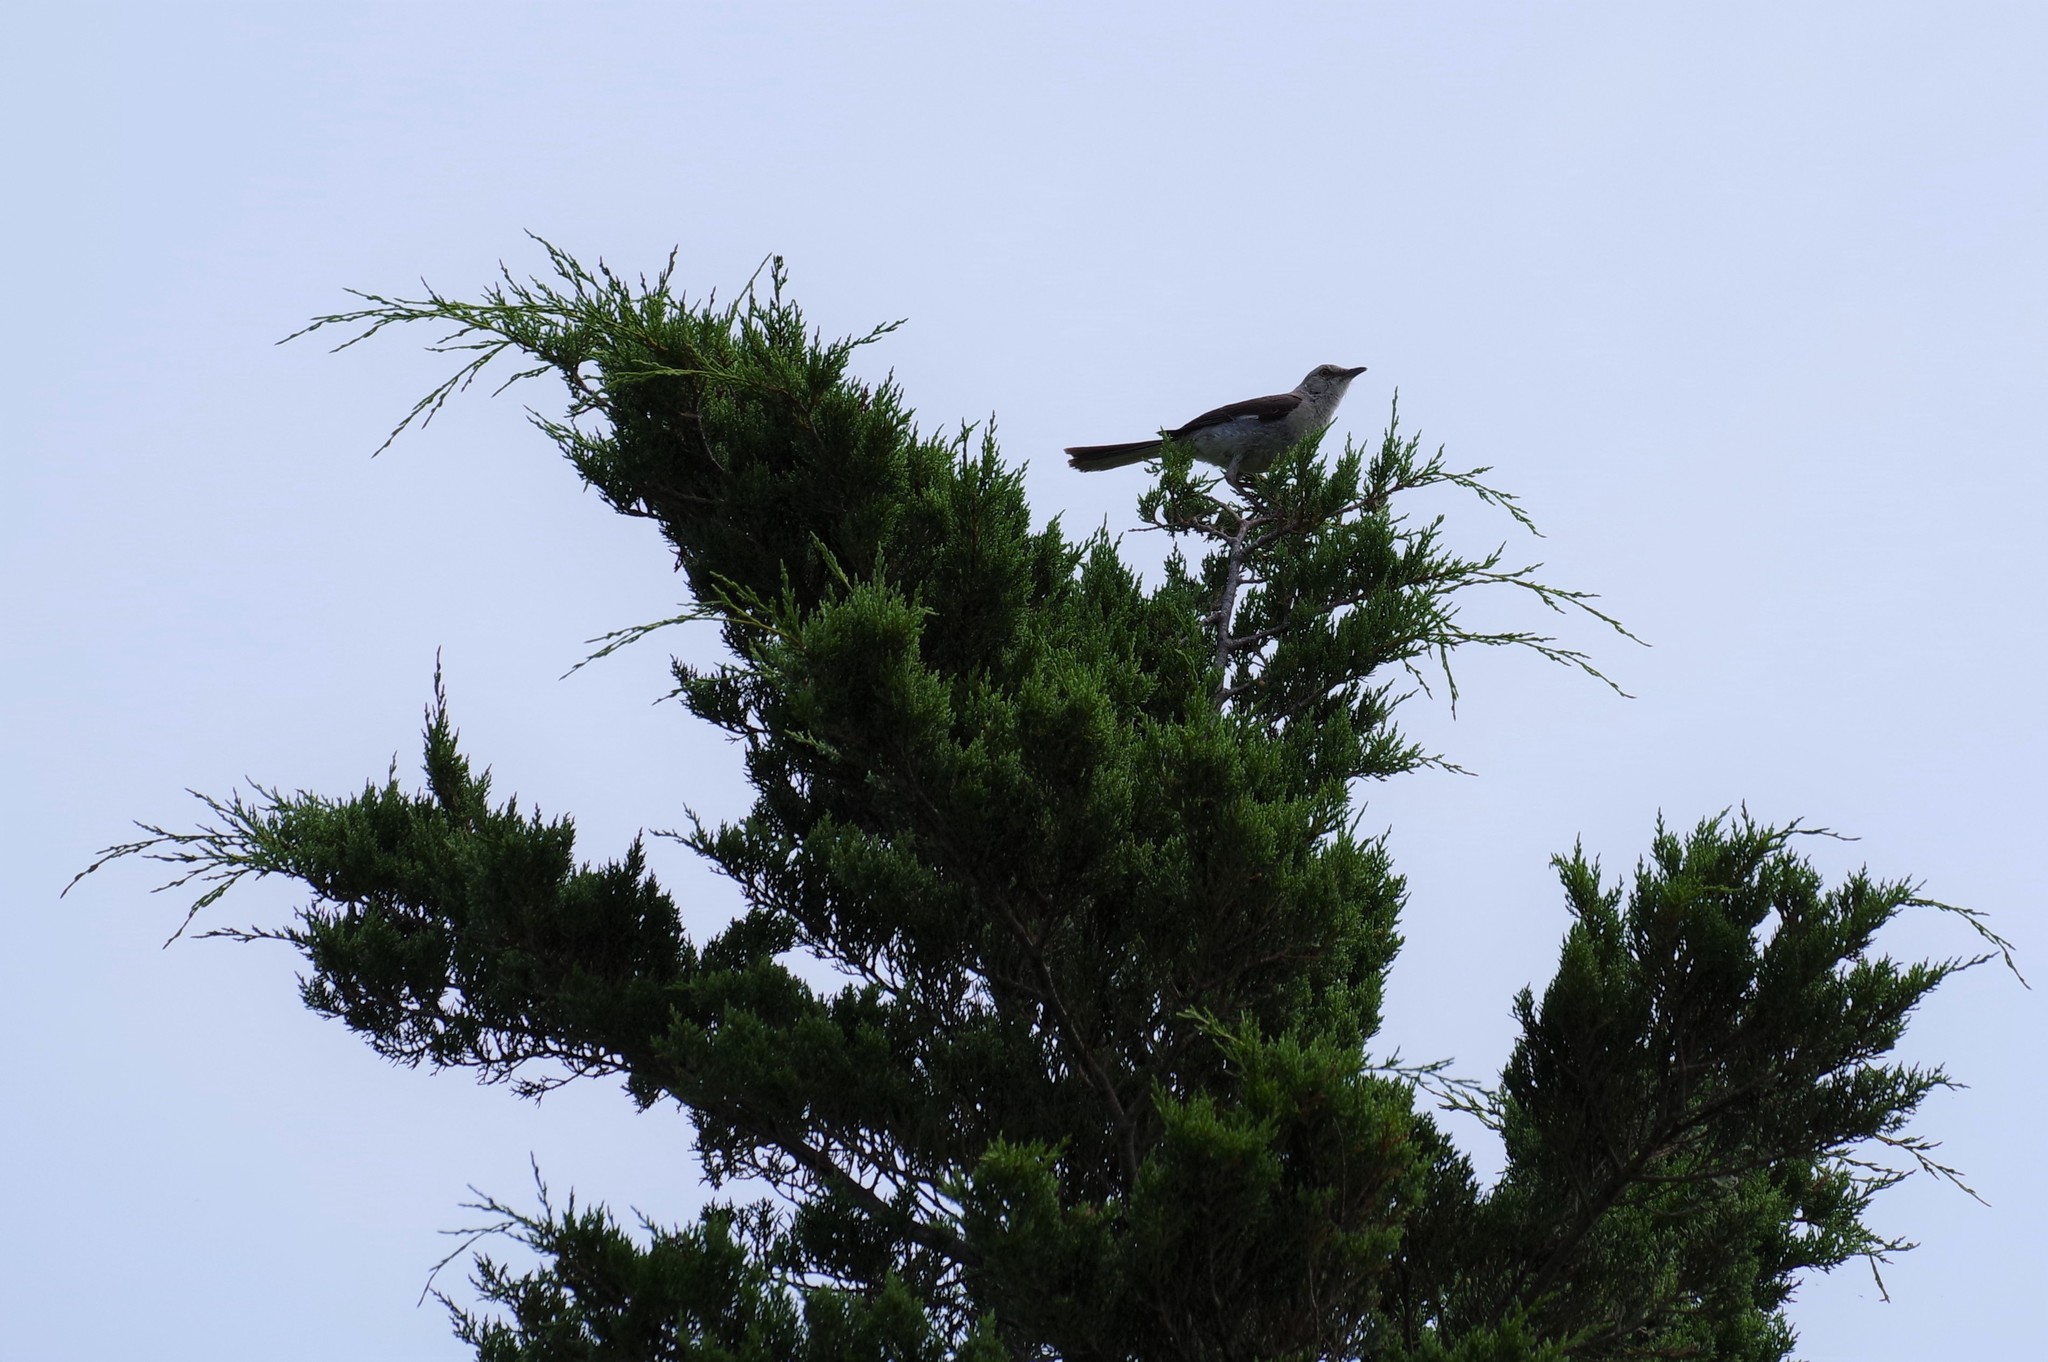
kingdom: Animalia
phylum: Chordata
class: Aves
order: Passeriformes
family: Mimidae
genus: Mimus
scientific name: Mimus polyglottos
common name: Northern mockingbird
